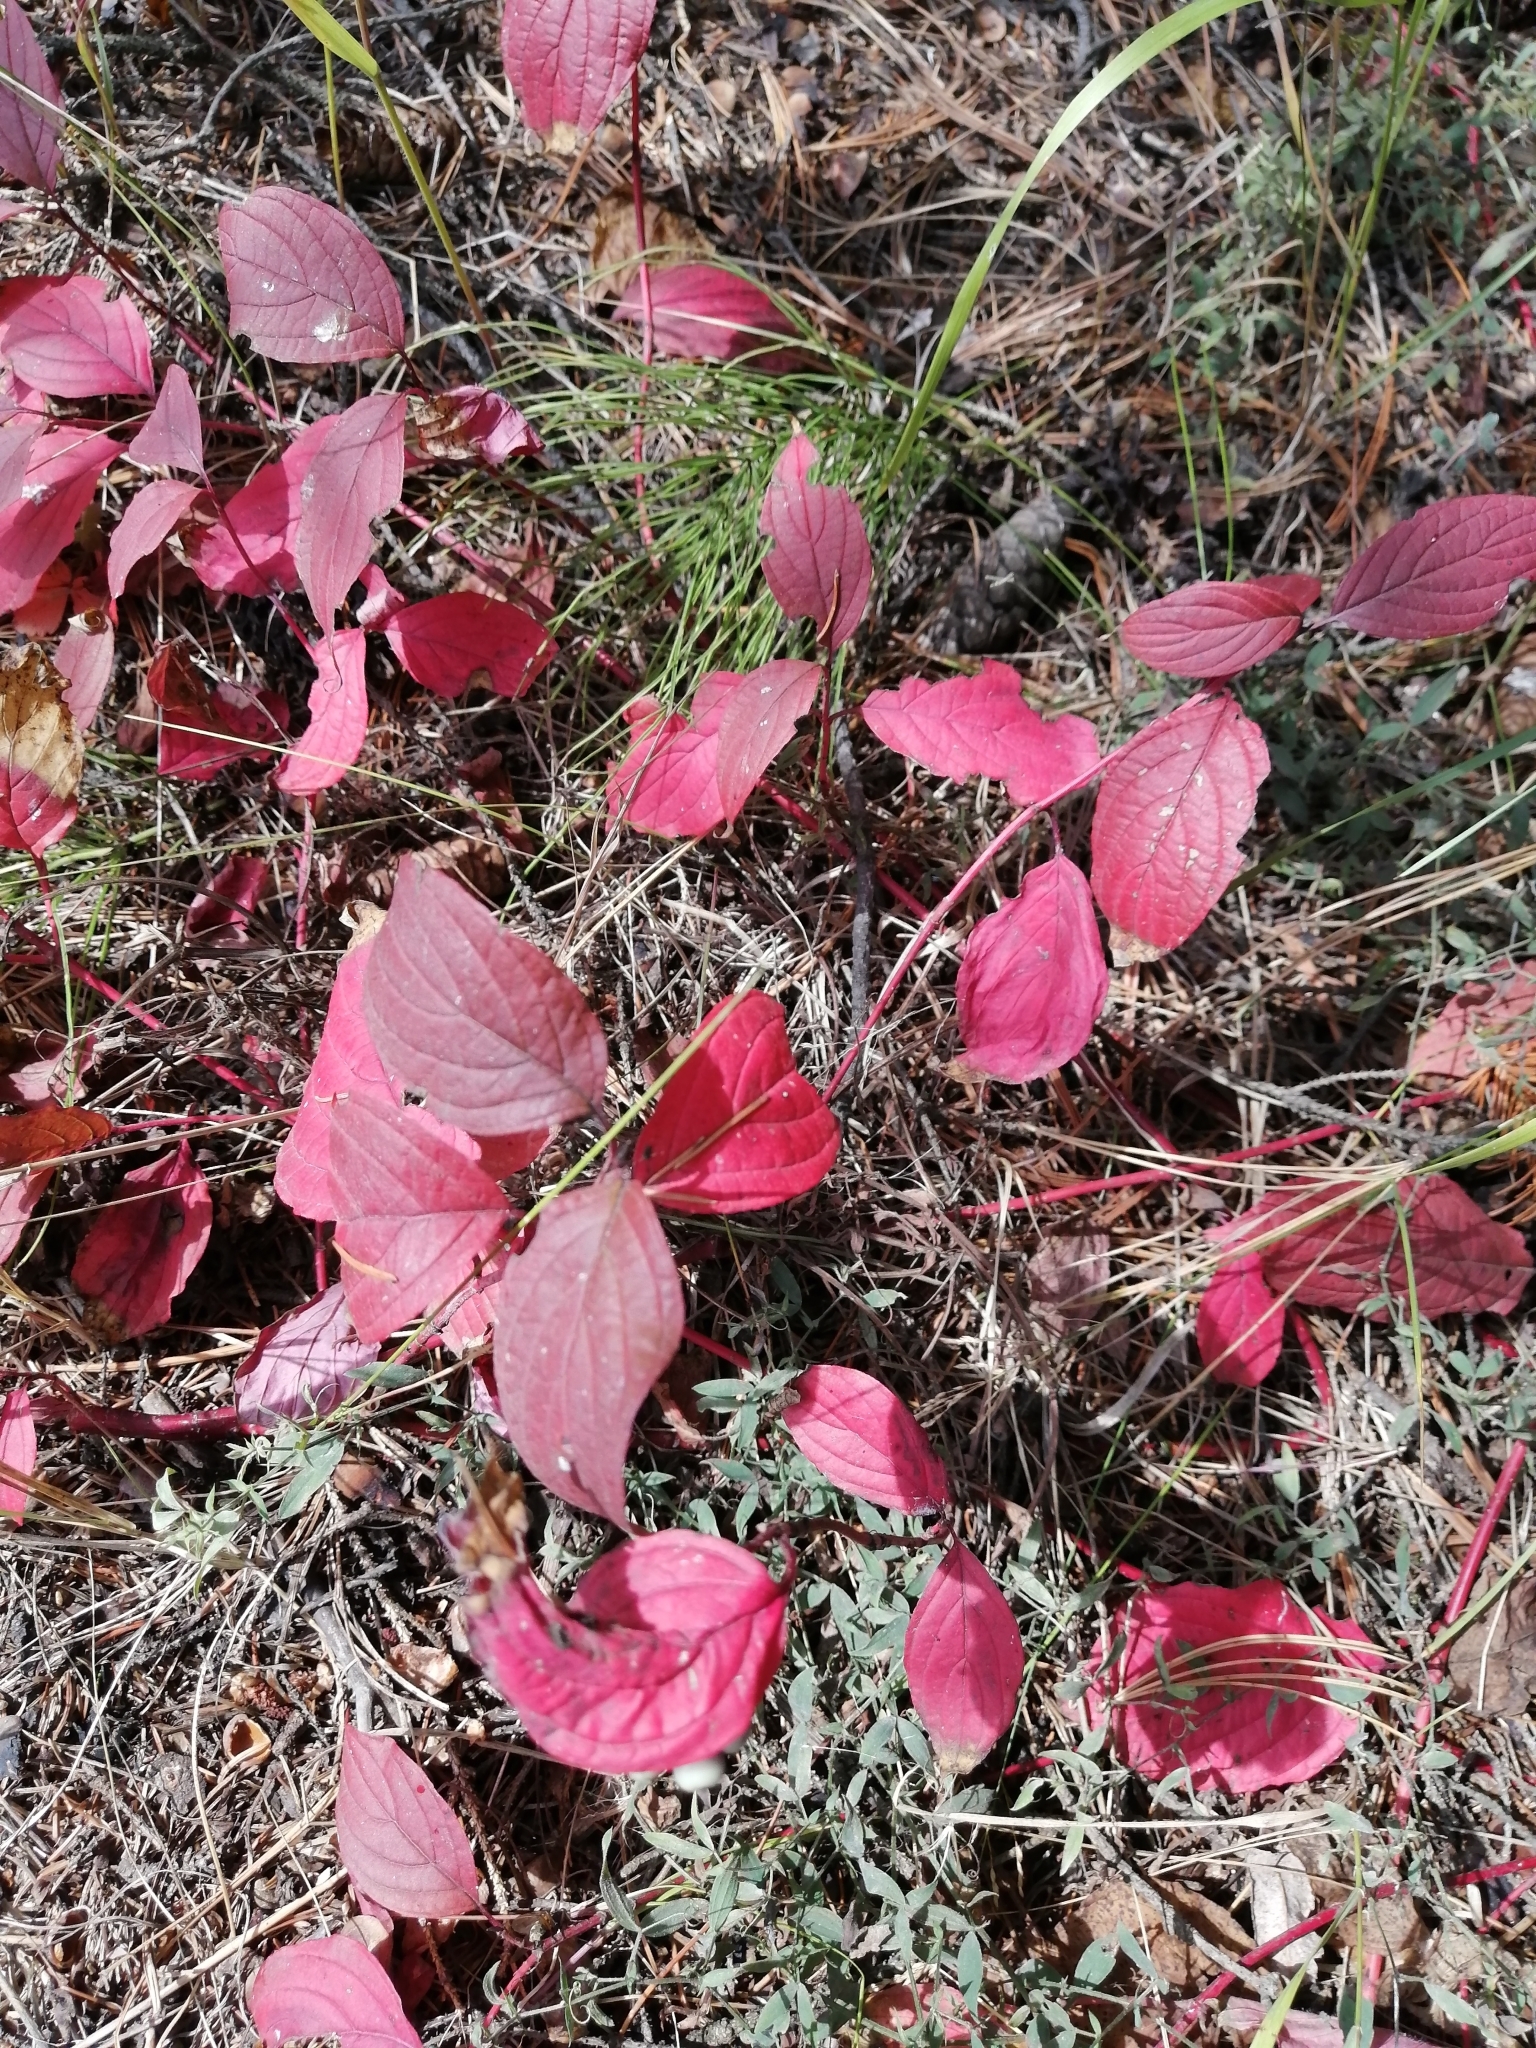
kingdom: Plantae
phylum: Tracheophyta
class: Magnoliopsida
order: Cornales
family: Cornaceae
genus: Cornus
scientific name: Cornus alba
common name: White dogwood
